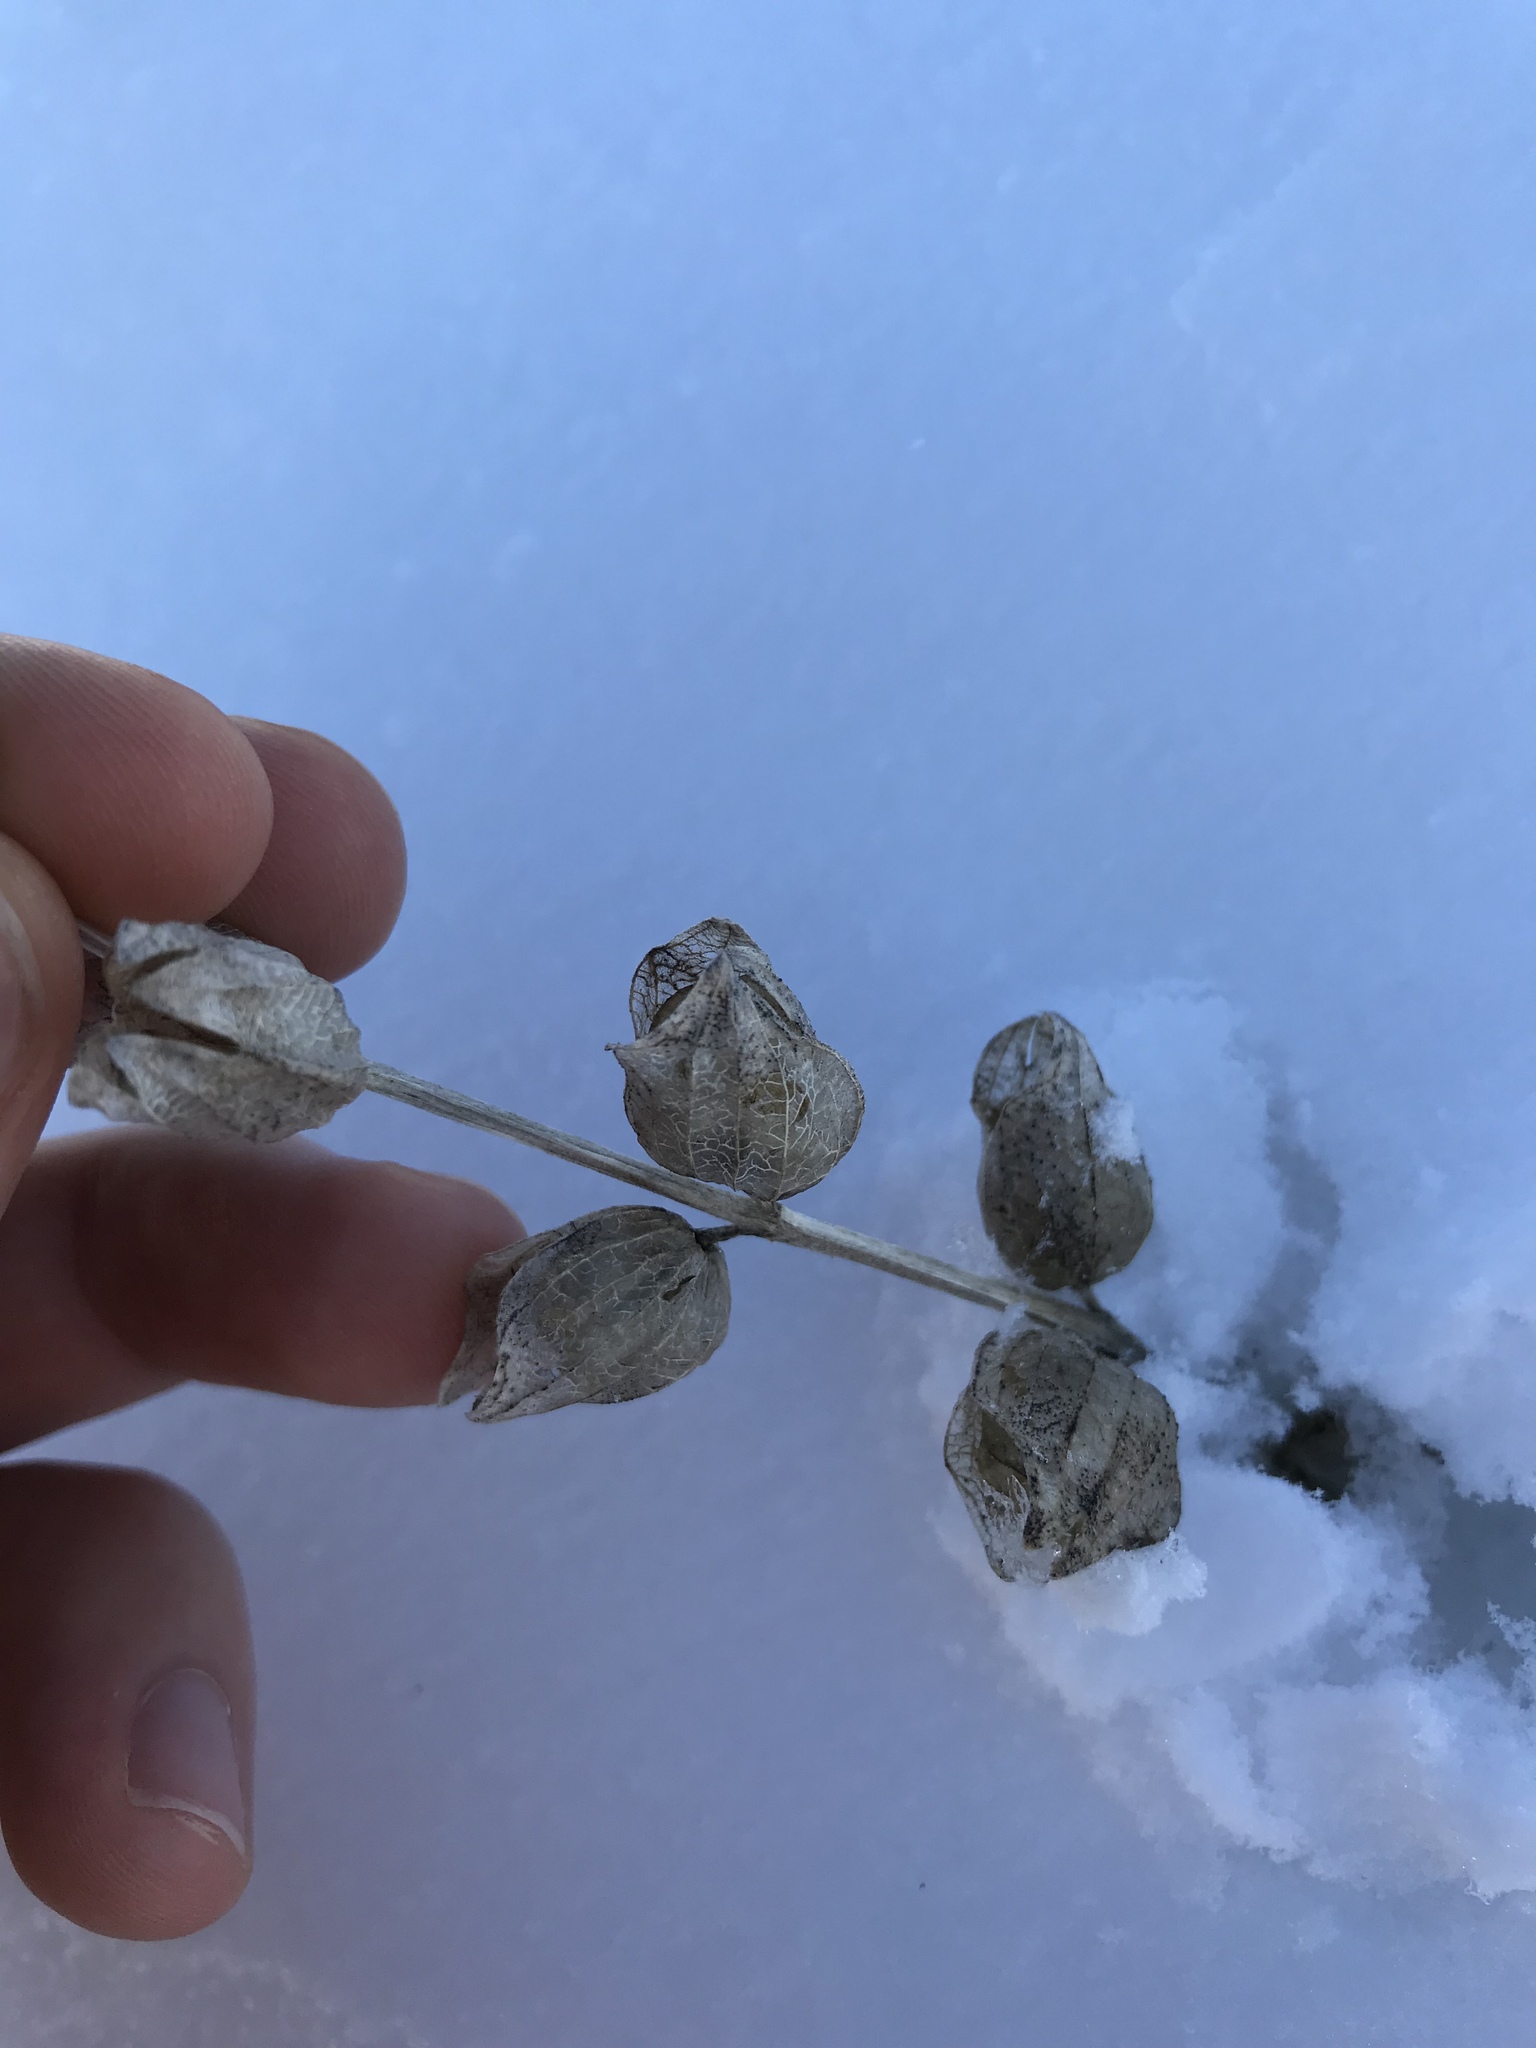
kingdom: Plantae
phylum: Tracheophyta
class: Magnoliopsida
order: Lamiales
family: Orobanchaceae
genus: Rhinanthus
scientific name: Rhinanthus minor
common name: Yellow-rattle
